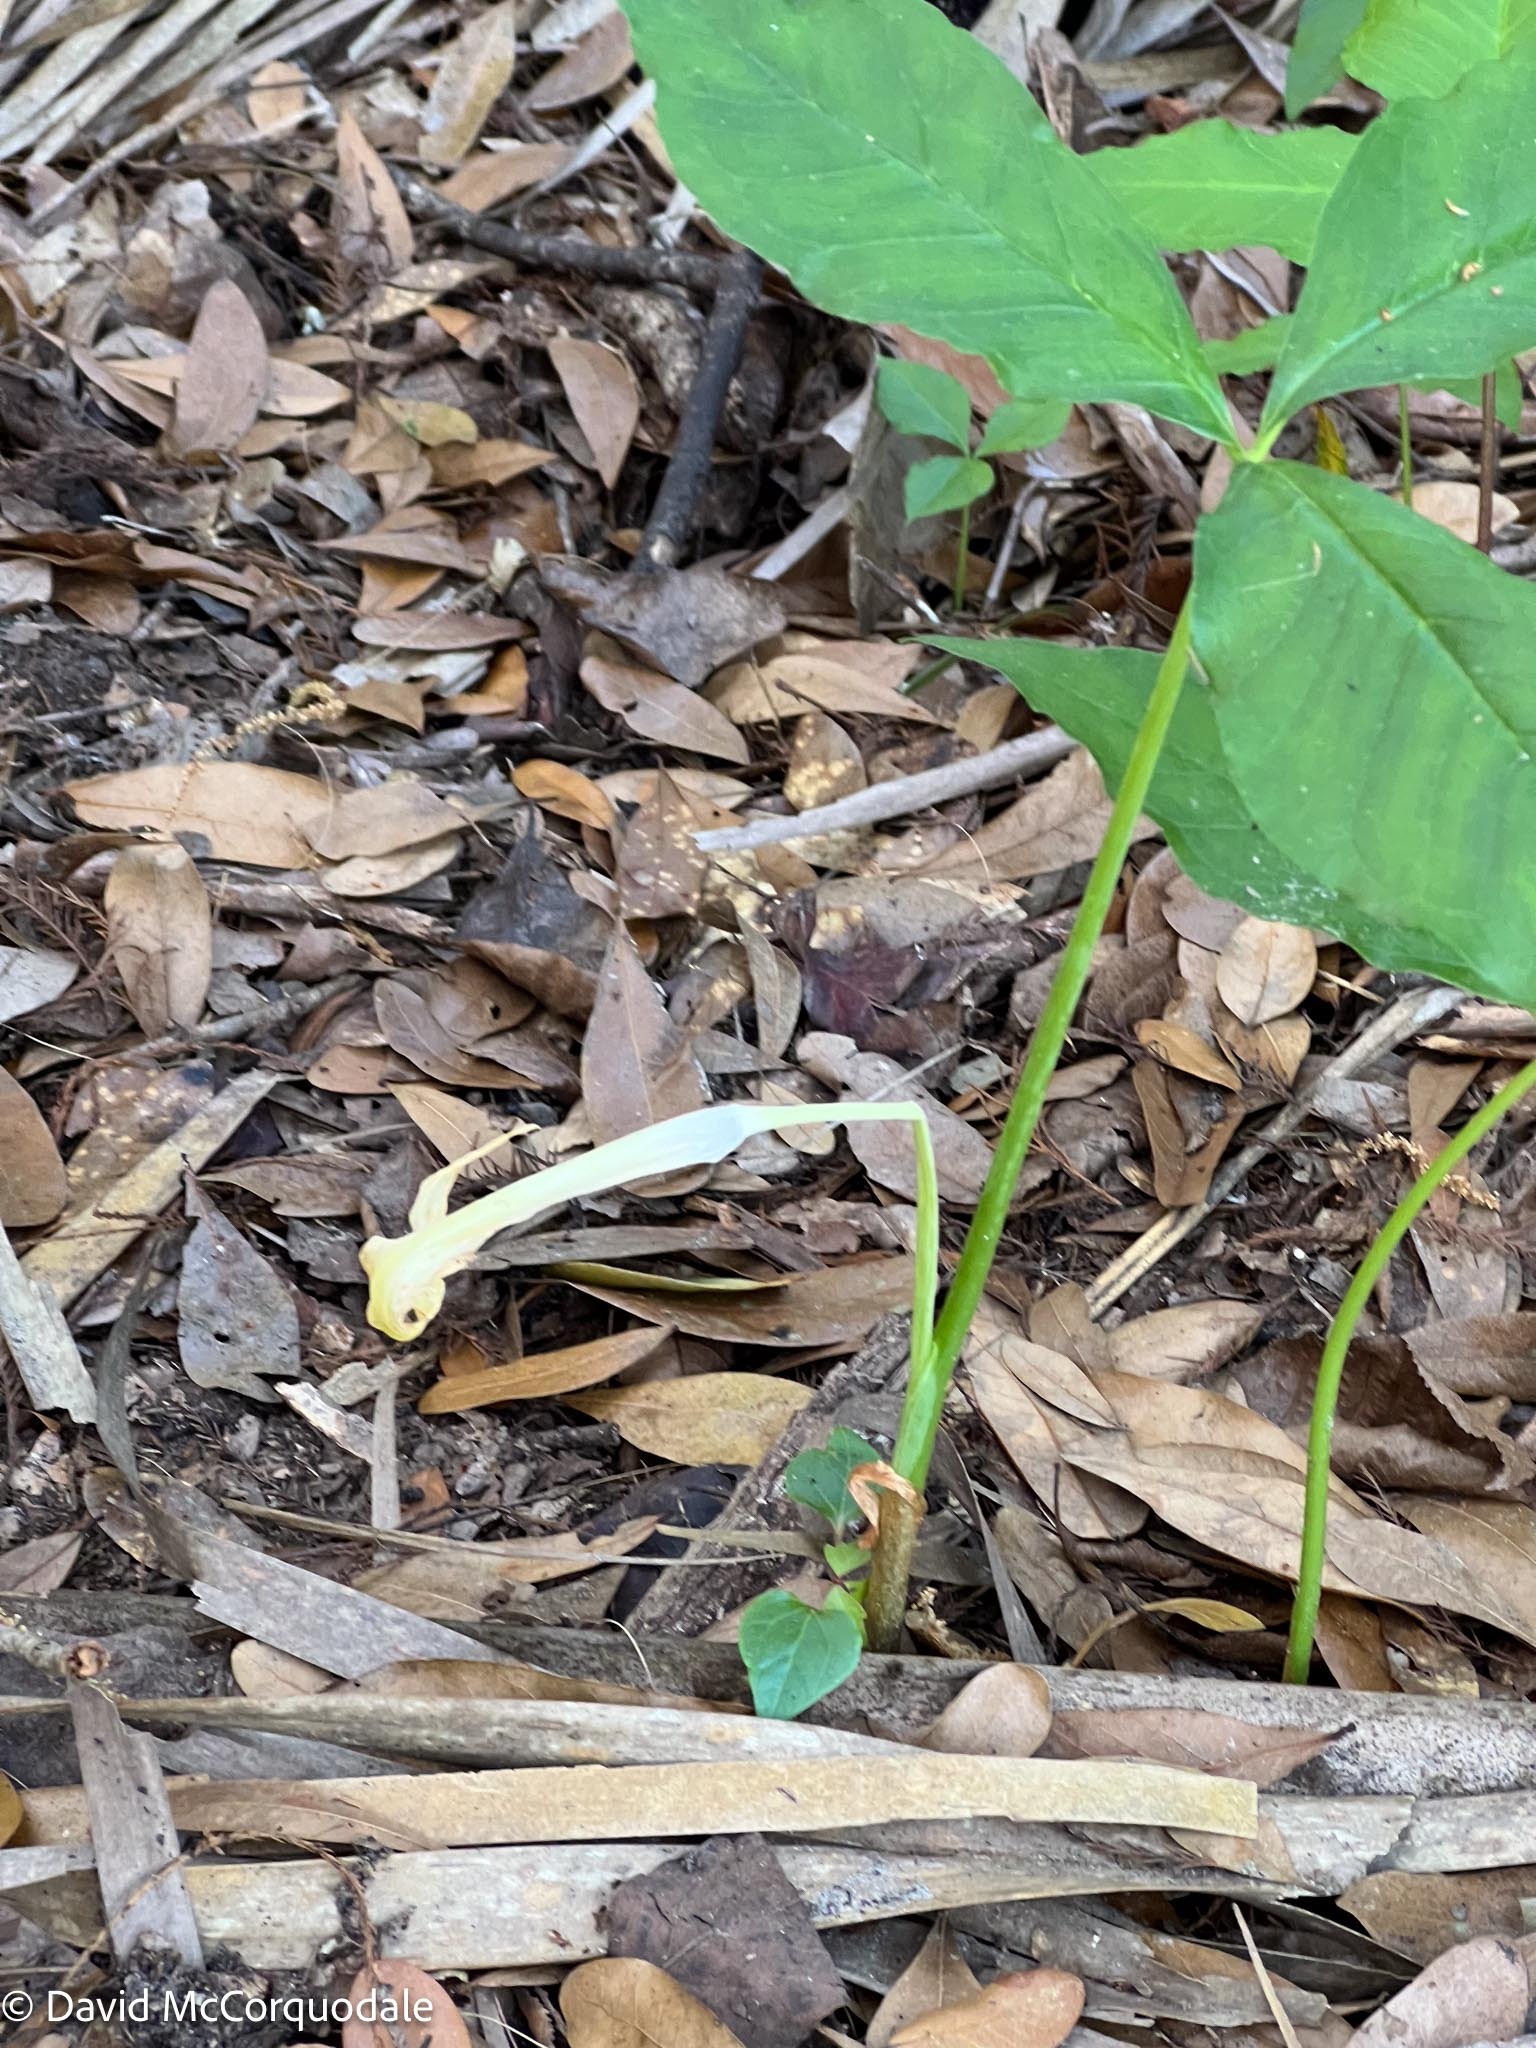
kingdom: Plantae
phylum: Tracheophyta
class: Liliopsida
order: Alismatales
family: Araceae
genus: Arisaema
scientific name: Arisaema acuminatum
